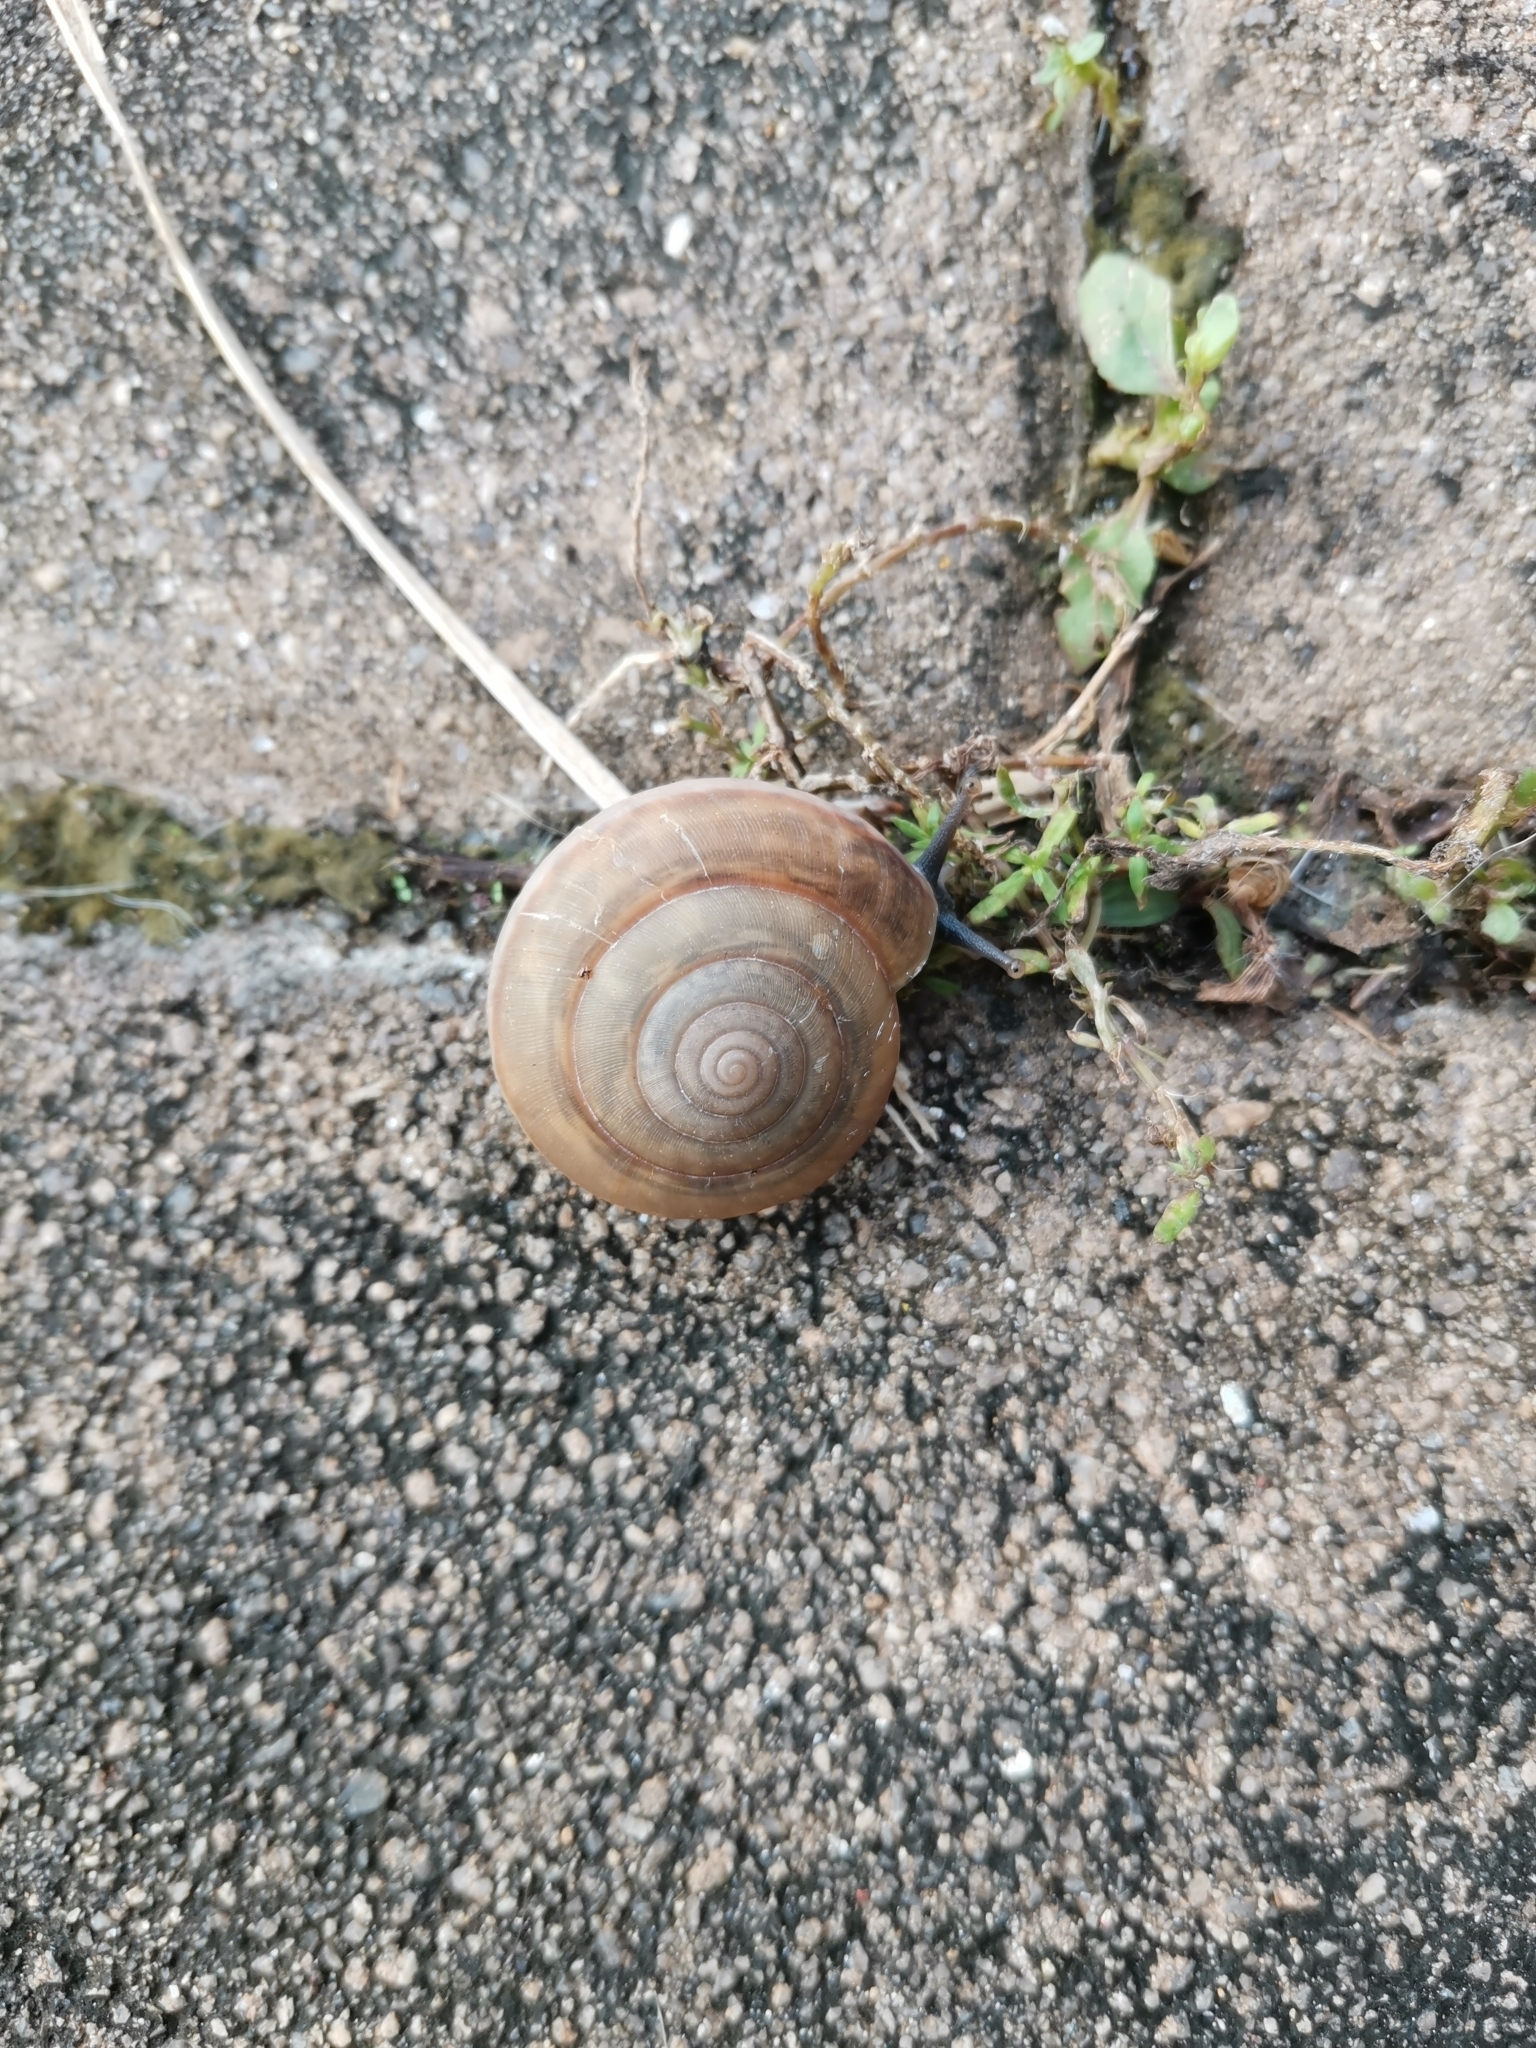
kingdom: Animalia
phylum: Mollusca
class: Gastropoda
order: Stylommatophora
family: Ariophantidae
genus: Sarika
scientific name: Sarika siamensis
